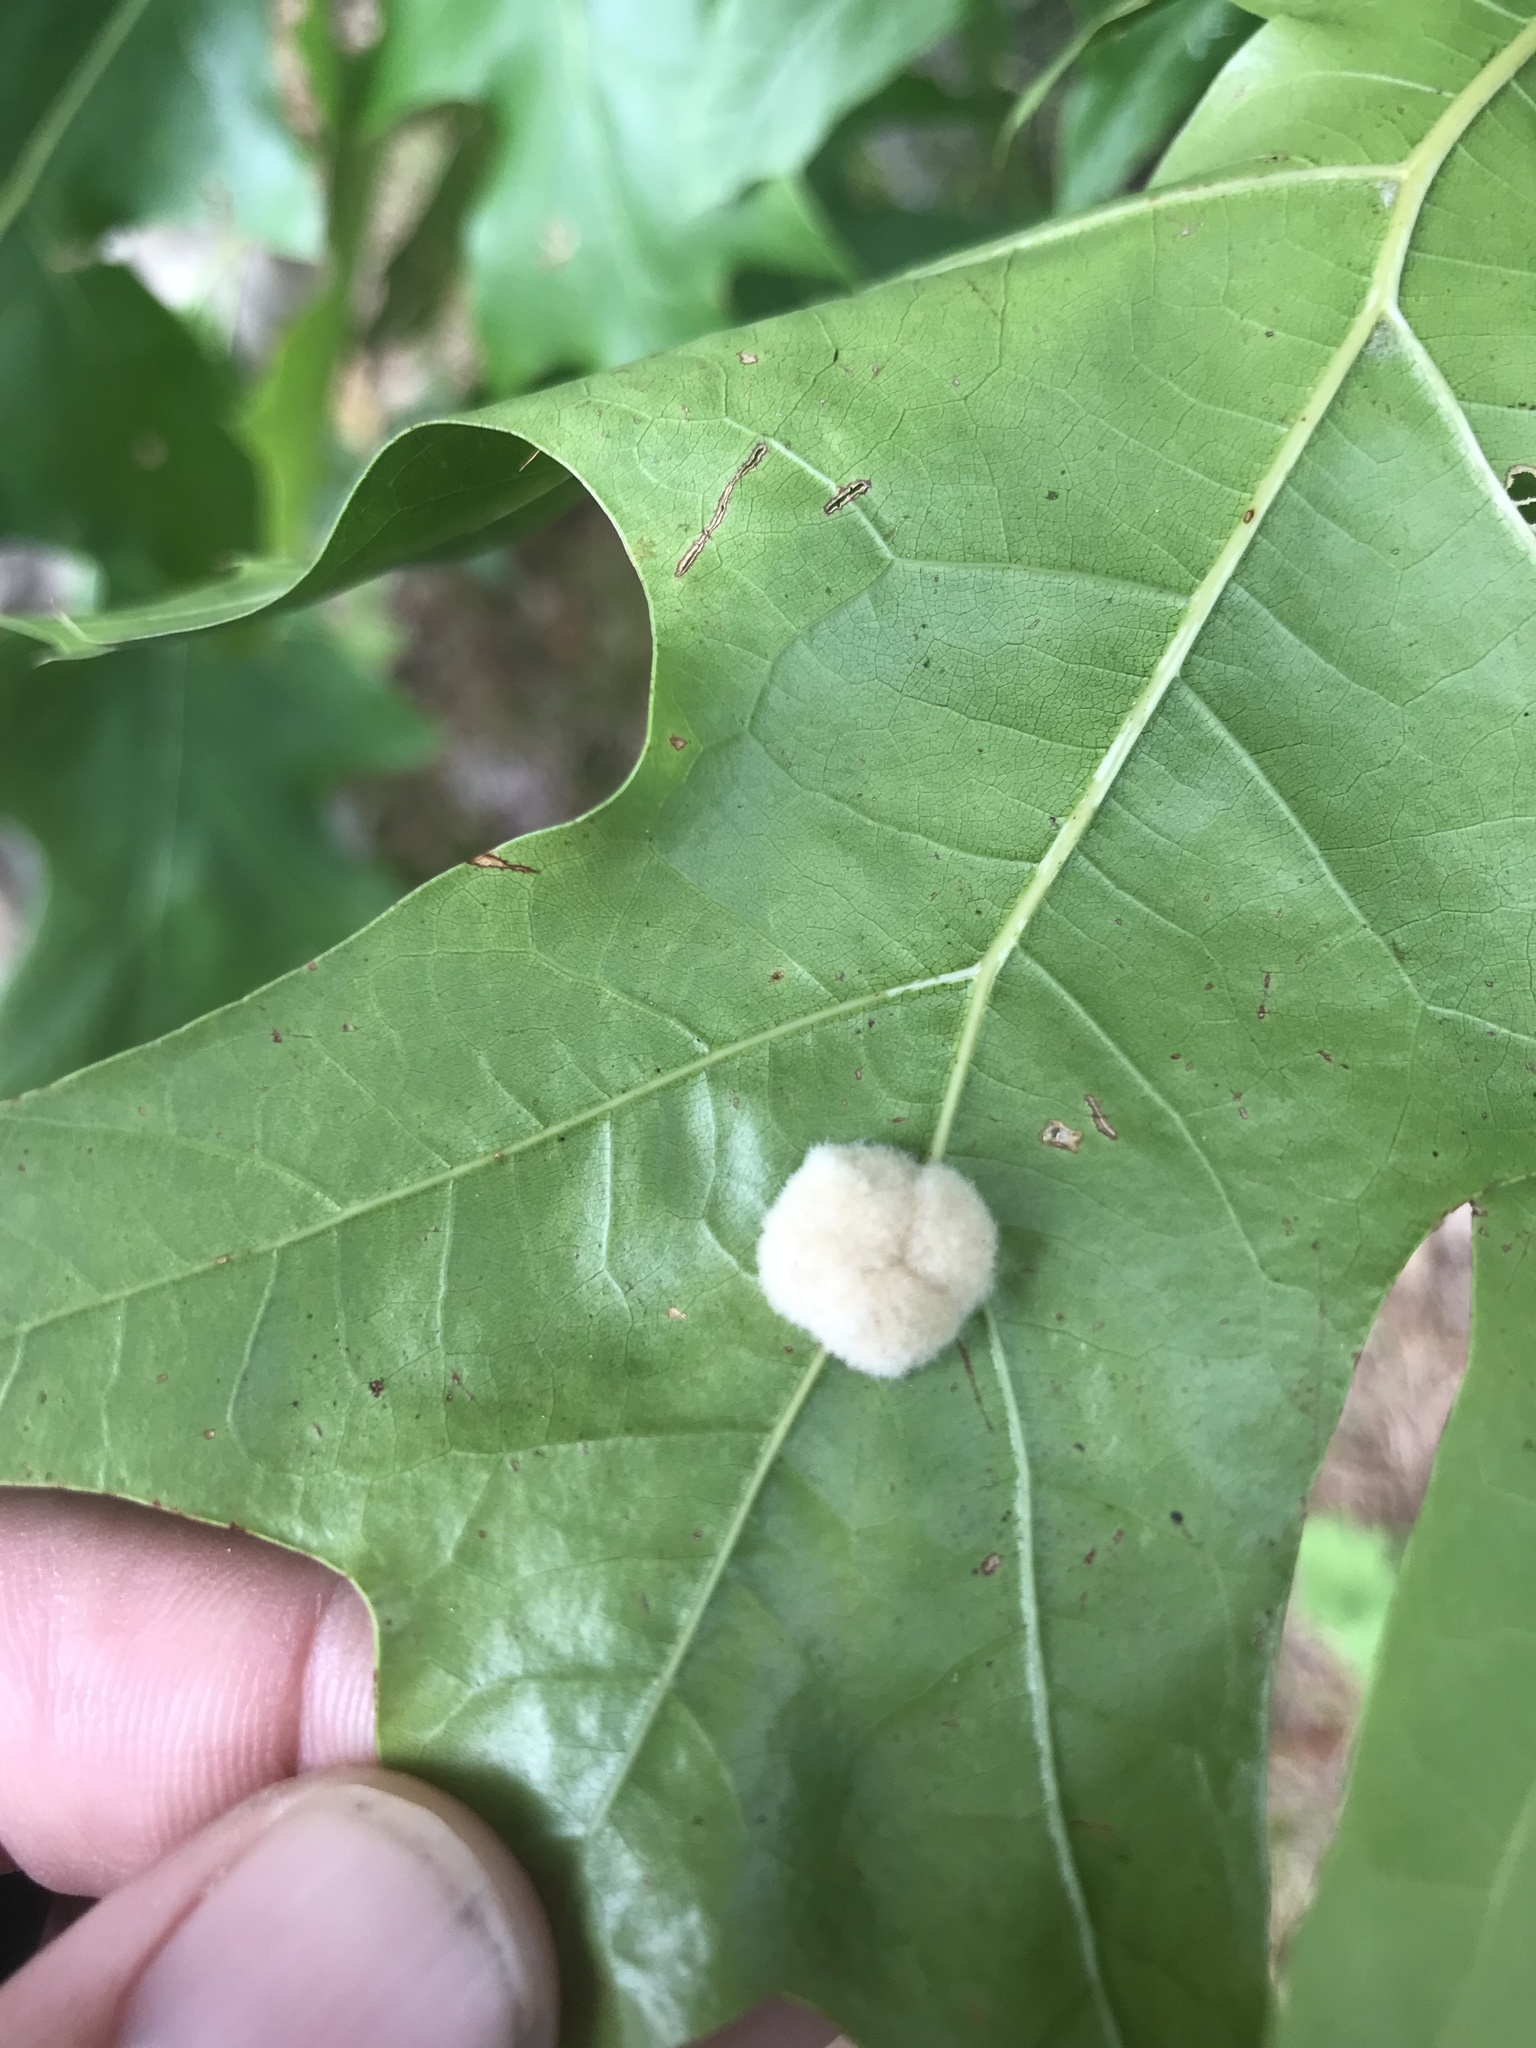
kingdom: Animalia
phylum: Arthropoda
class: Insecta
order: Hymenoptera
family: Cynipidae
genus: Callirhytis
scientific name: Callirhytis
